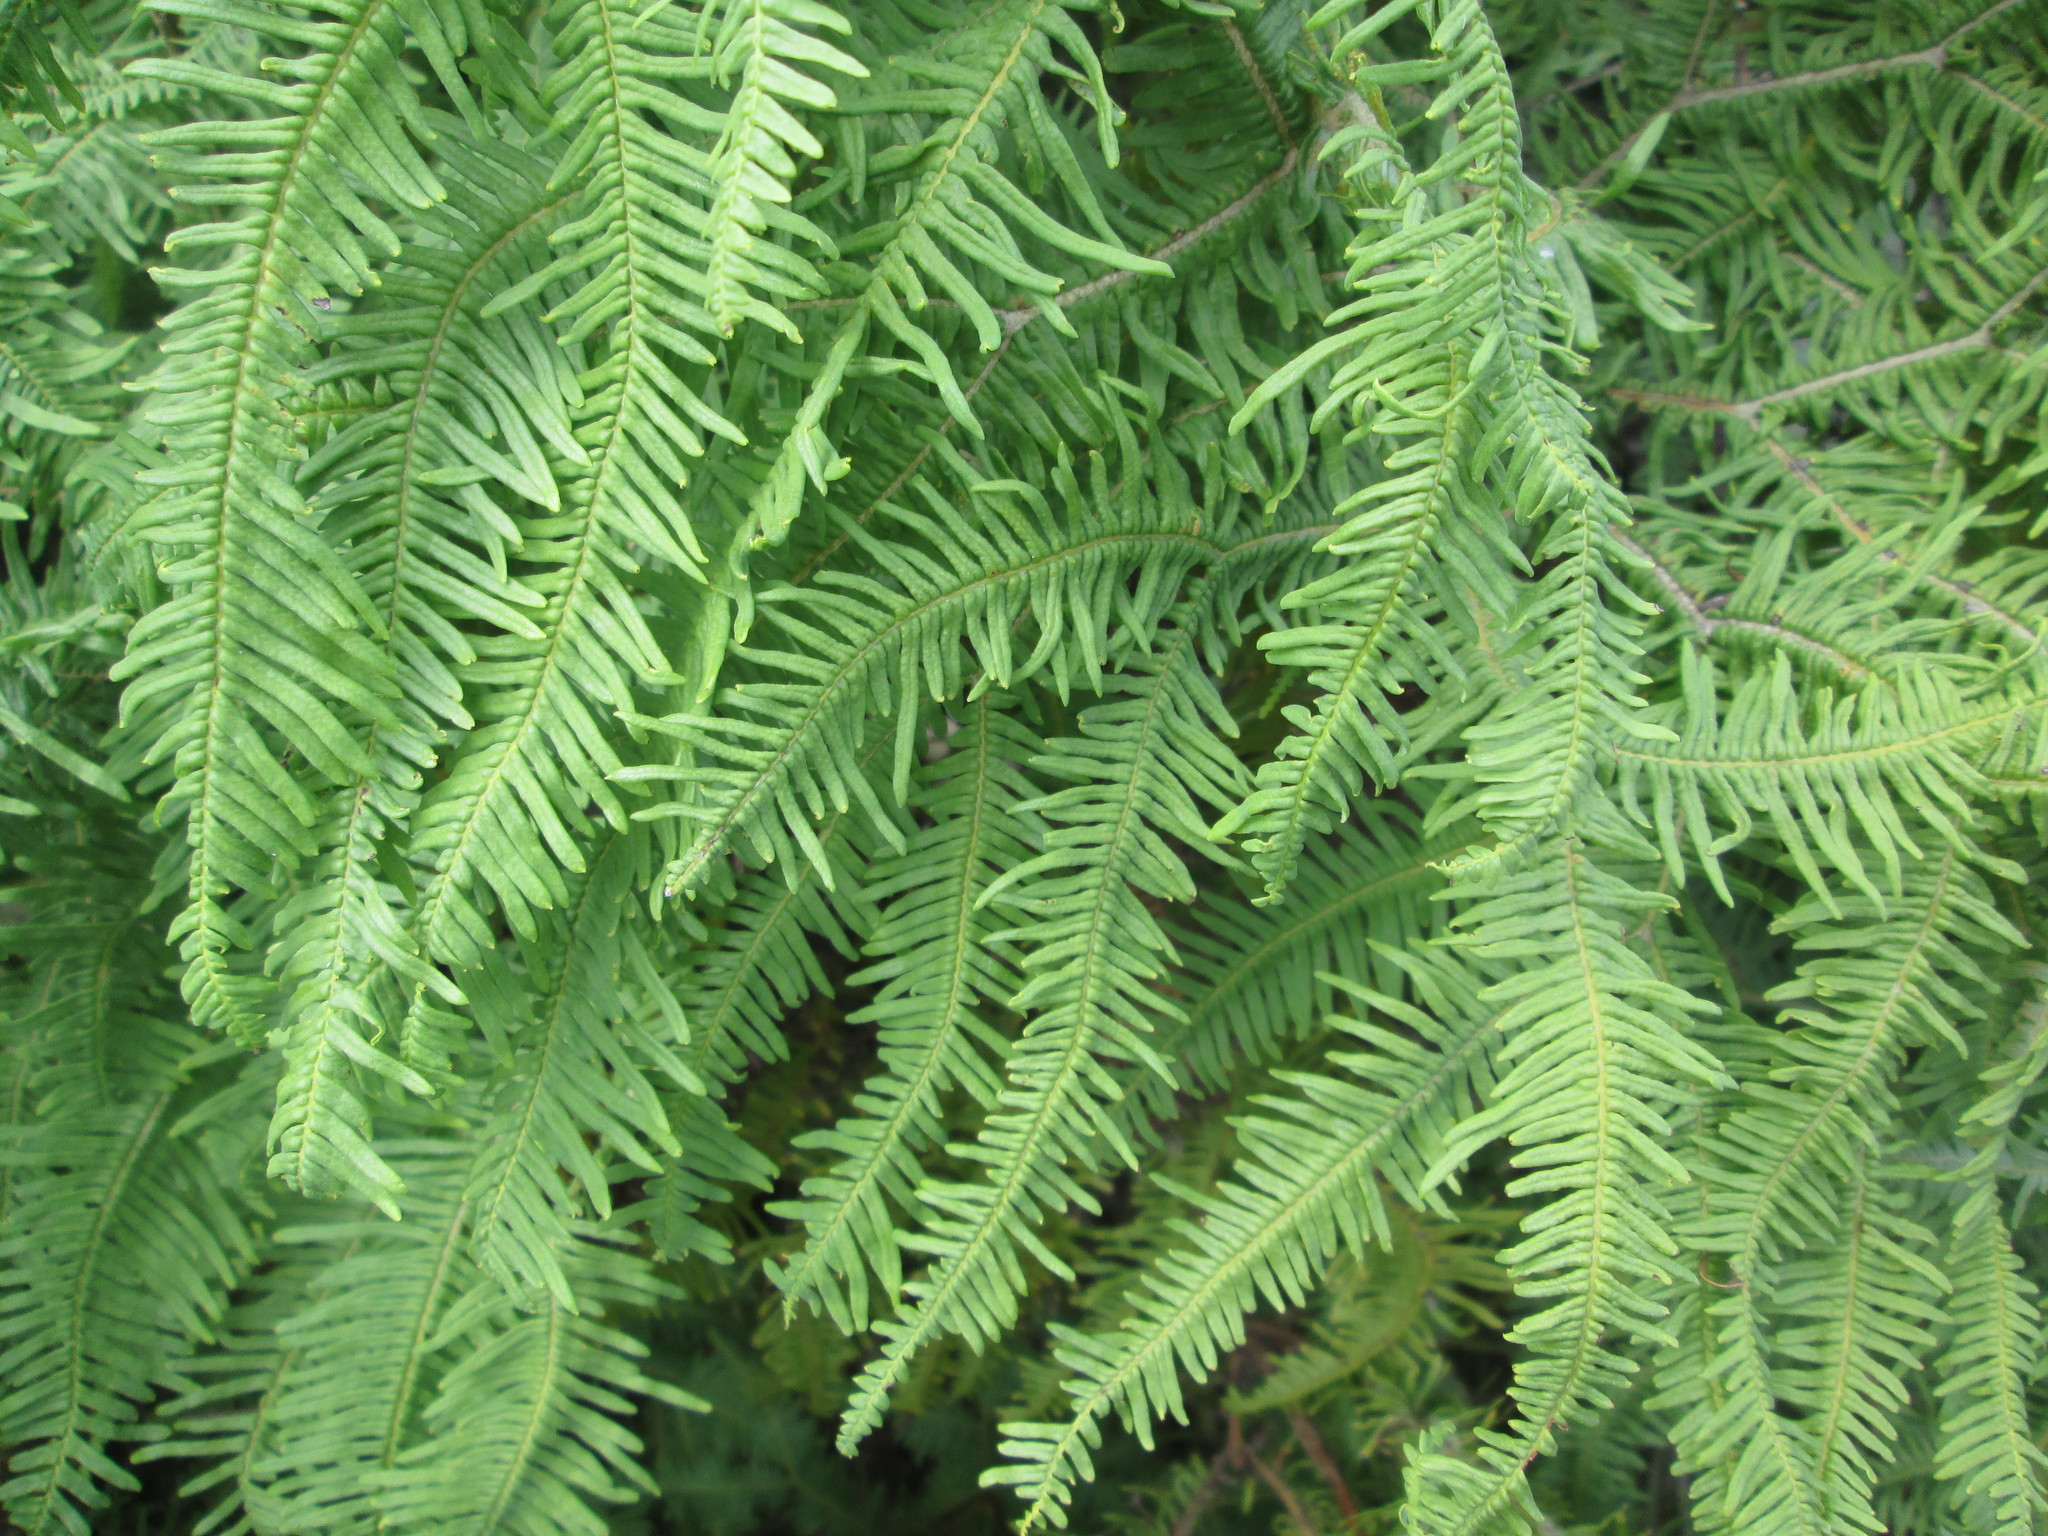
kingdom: Plantae
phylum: Tracheophyta
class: Polypodiopsida
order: Gleicheniales
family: Gleicheniaceae
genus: Sticherus
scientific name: Sticherus umbraculifer
